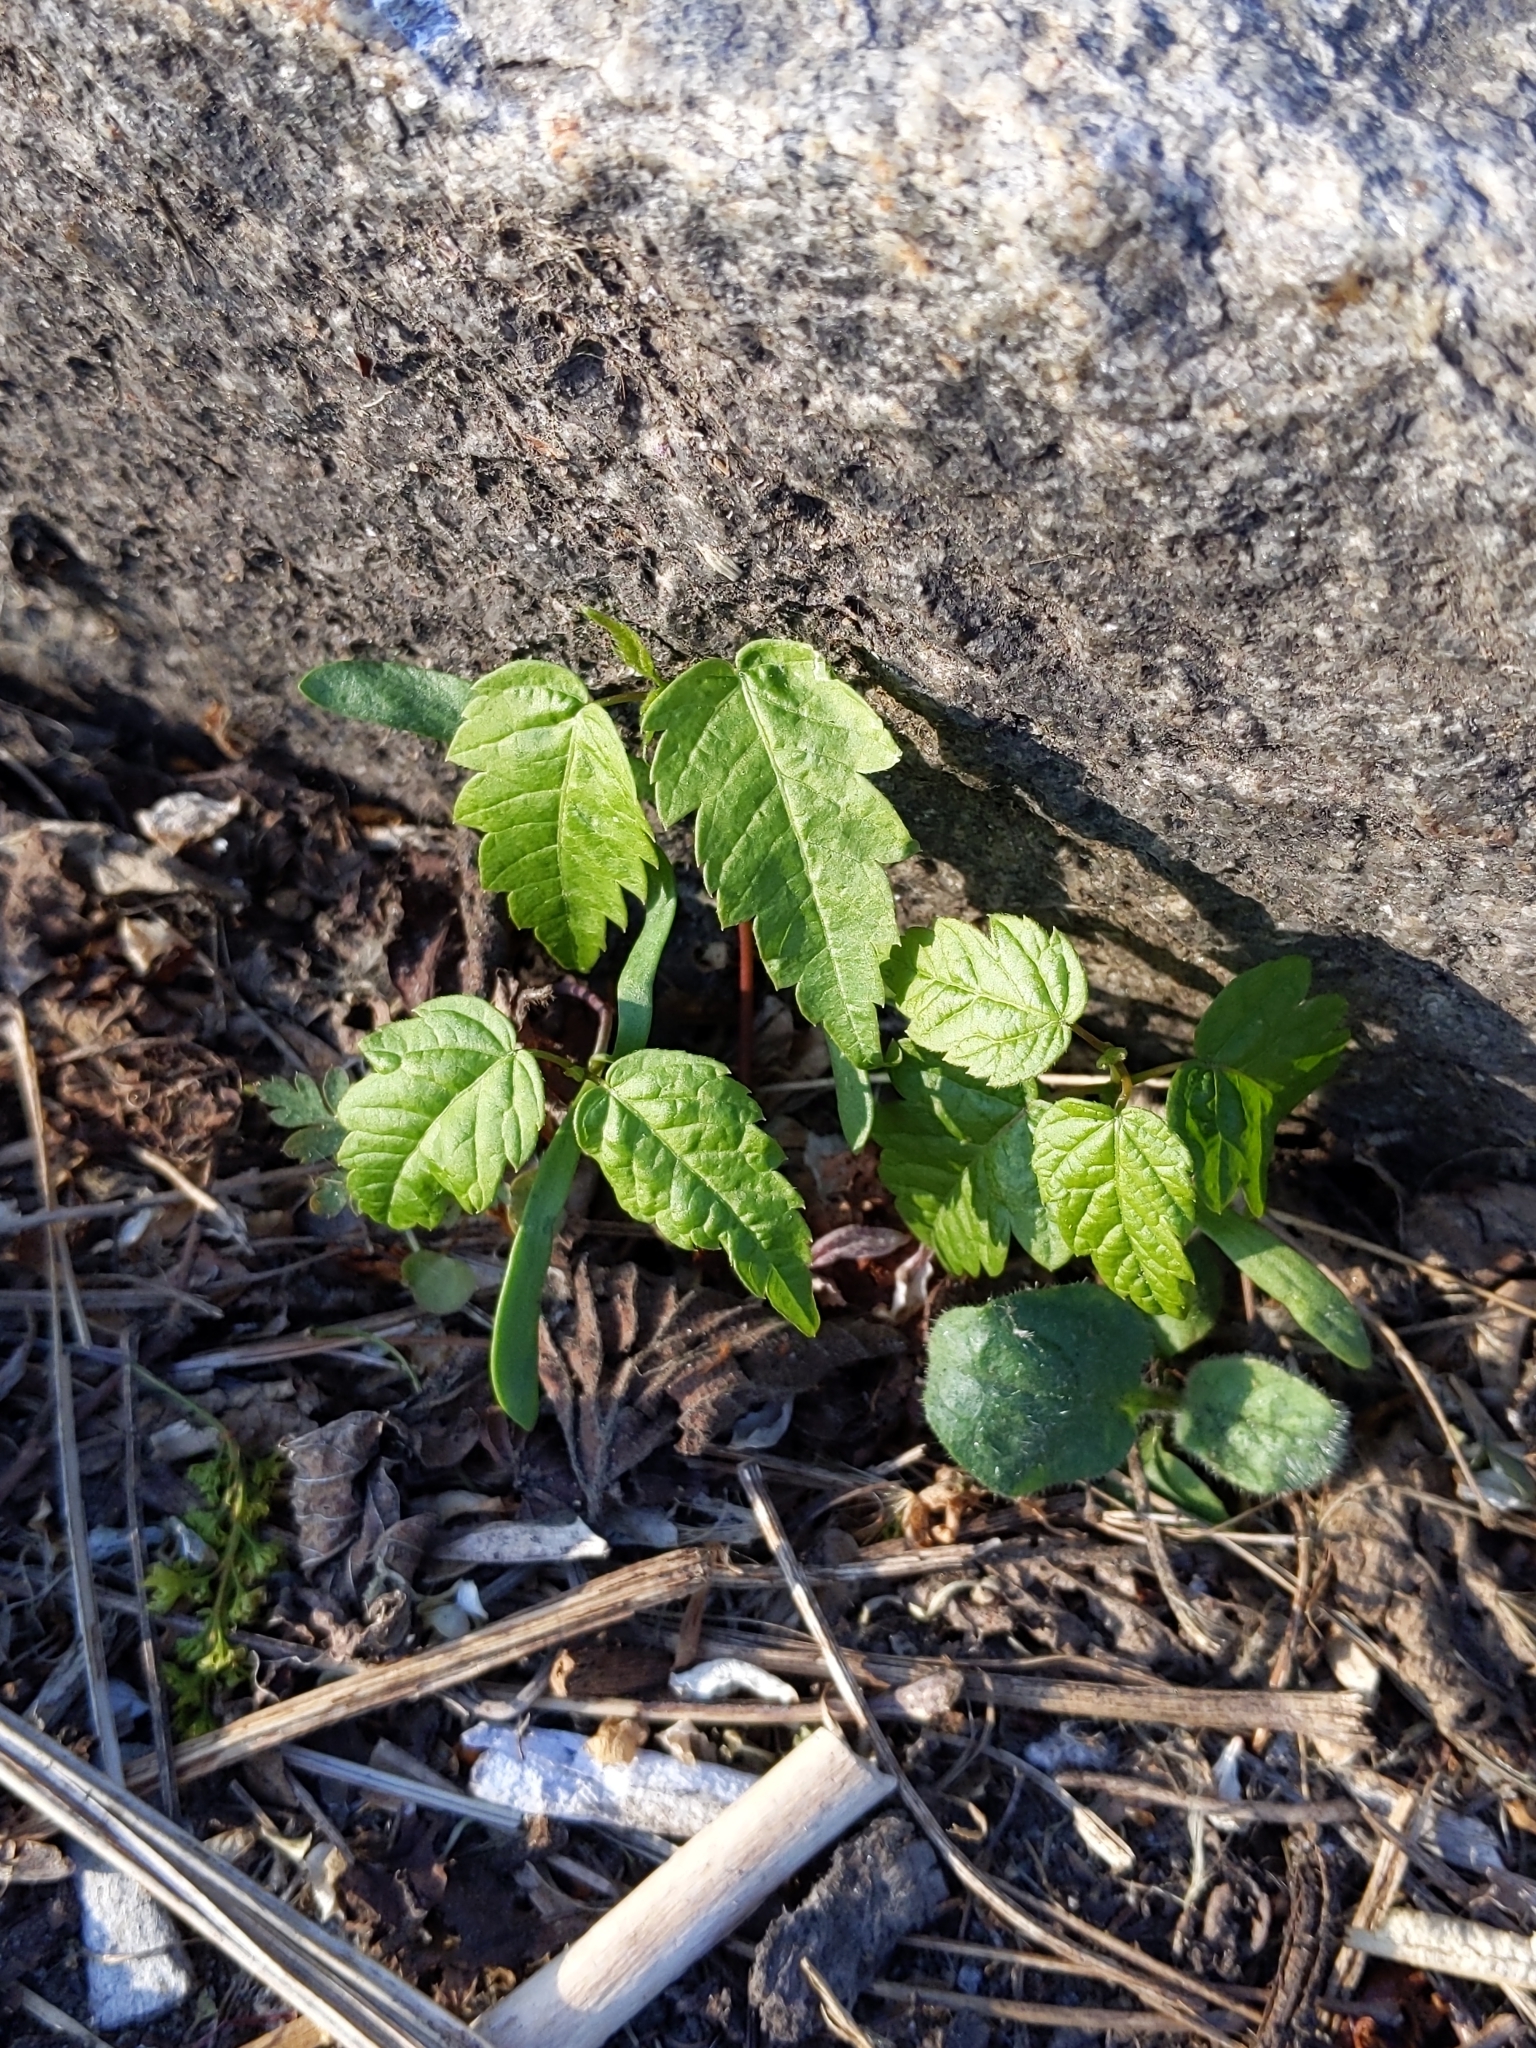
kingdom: Plantae
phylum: Tracheophyta
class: Magnoliopsida
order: Sapindales
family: Sapindaceae
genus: Acer
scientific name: Acer pseudoplatanus
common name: Sycamore
